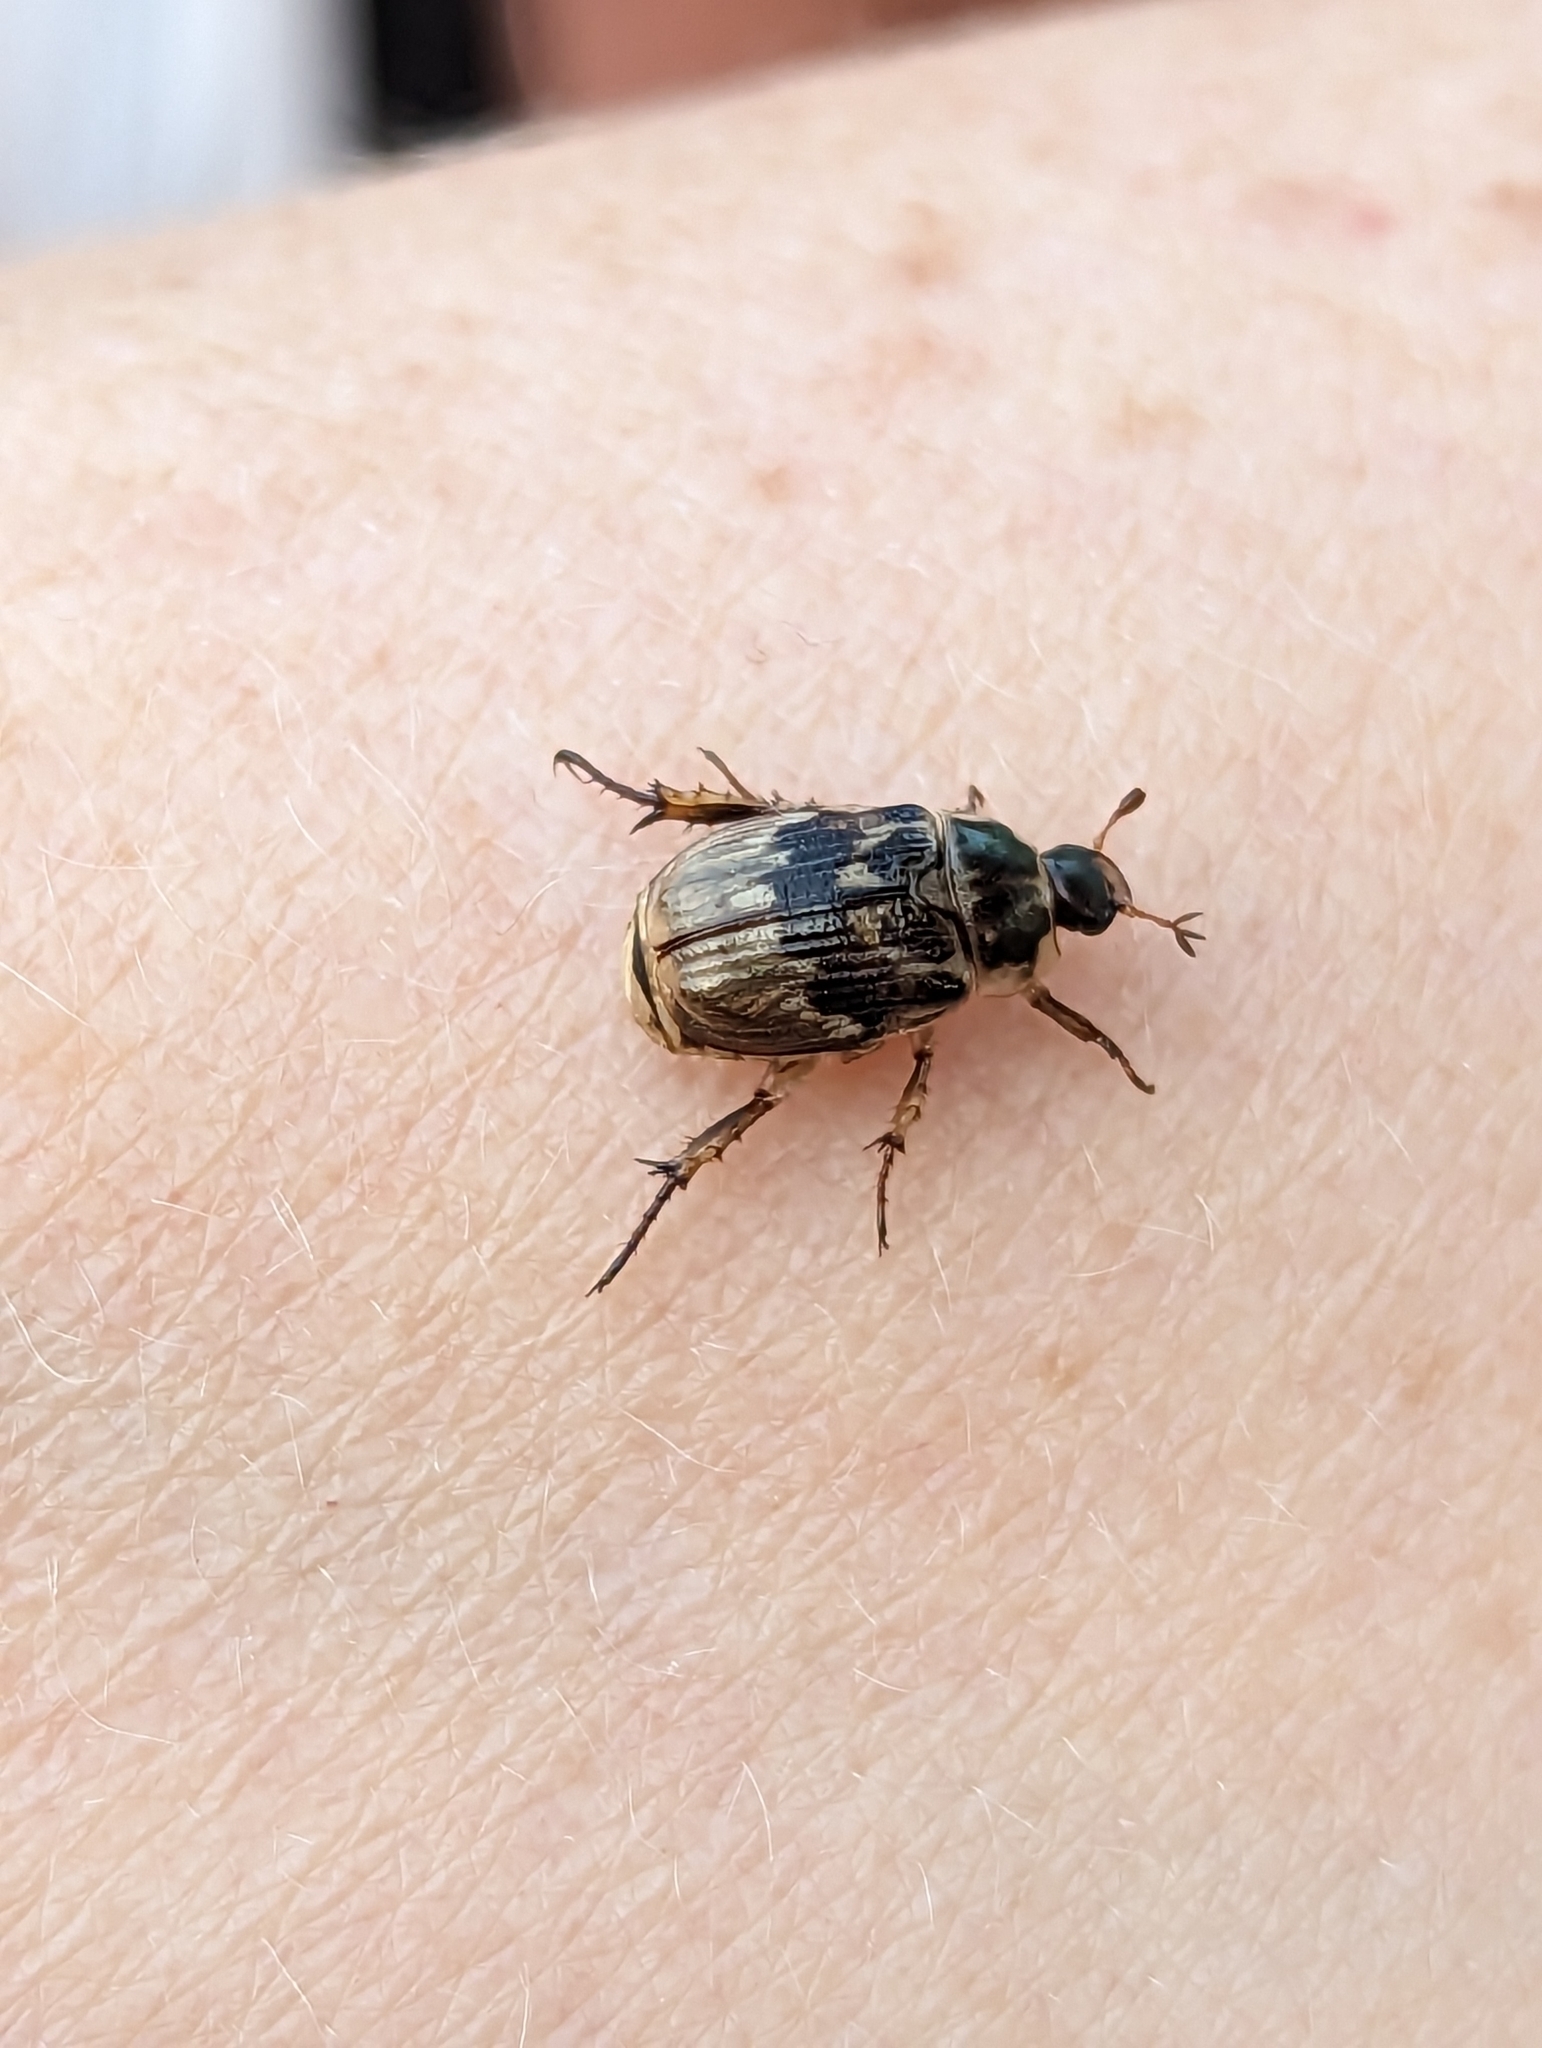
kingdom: Animalia
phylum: Arthropoda
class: Insecta
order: Coleoptera
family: Scarabaeidae
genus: Exomala
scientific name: Exomala orientalis
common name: Oriental beetle
